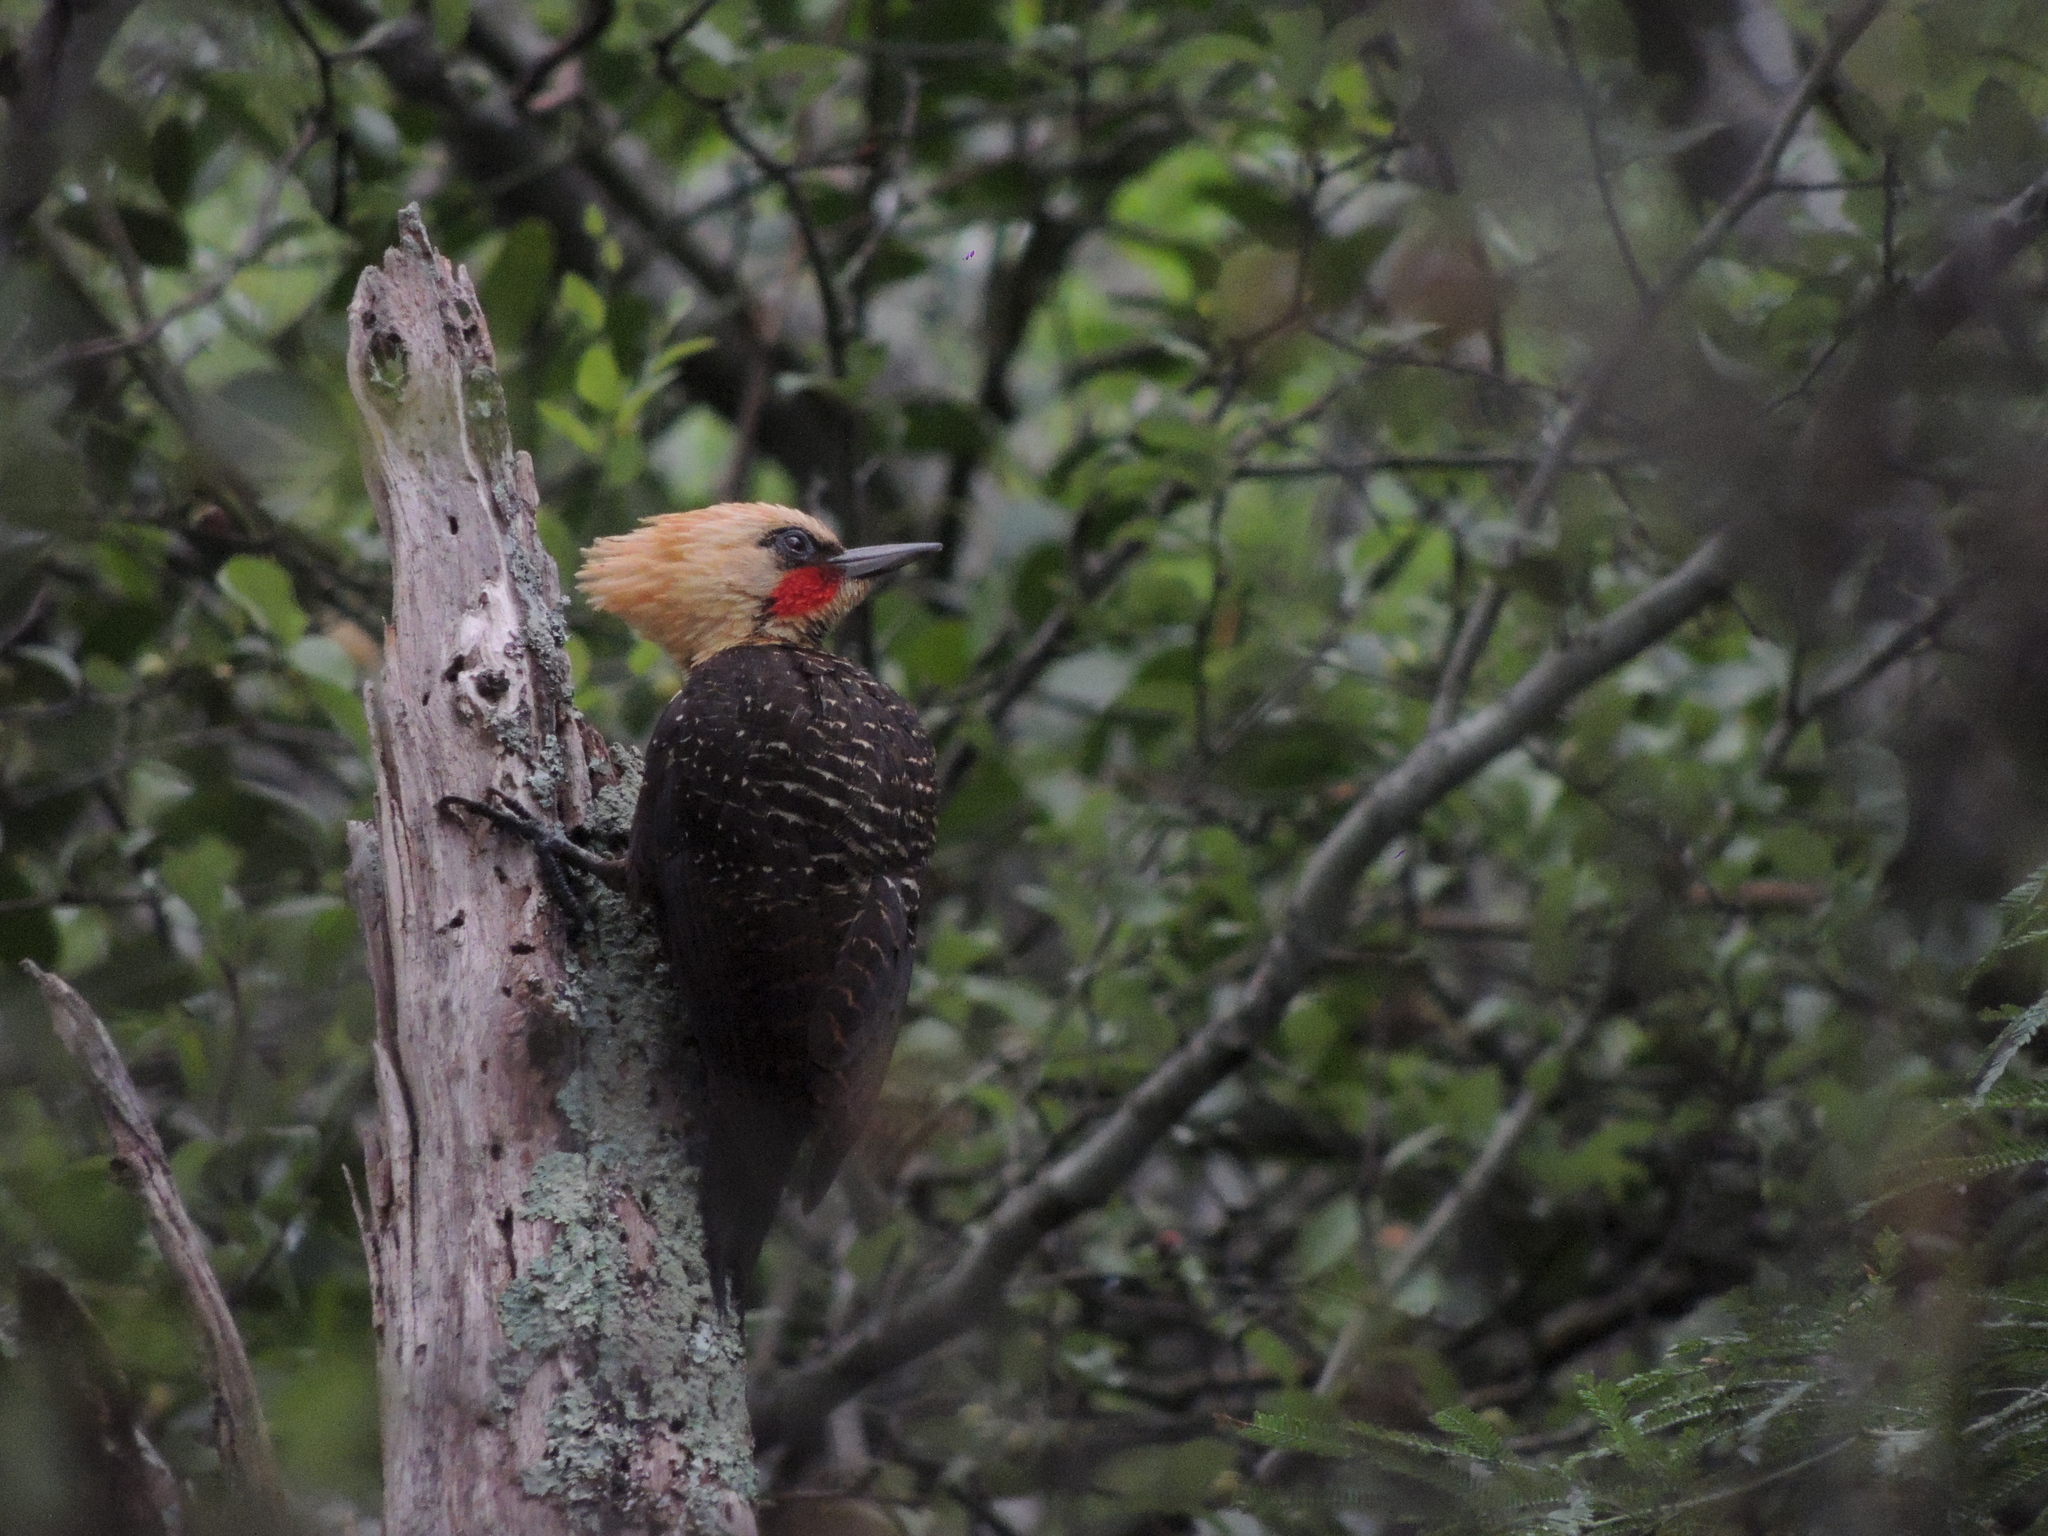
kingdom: Animalia
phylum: Chordata
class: Aves
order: Piciformes
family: Picidae
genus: Celeus
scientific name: Celeus lugubris
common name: Pale-crested woodpecker
